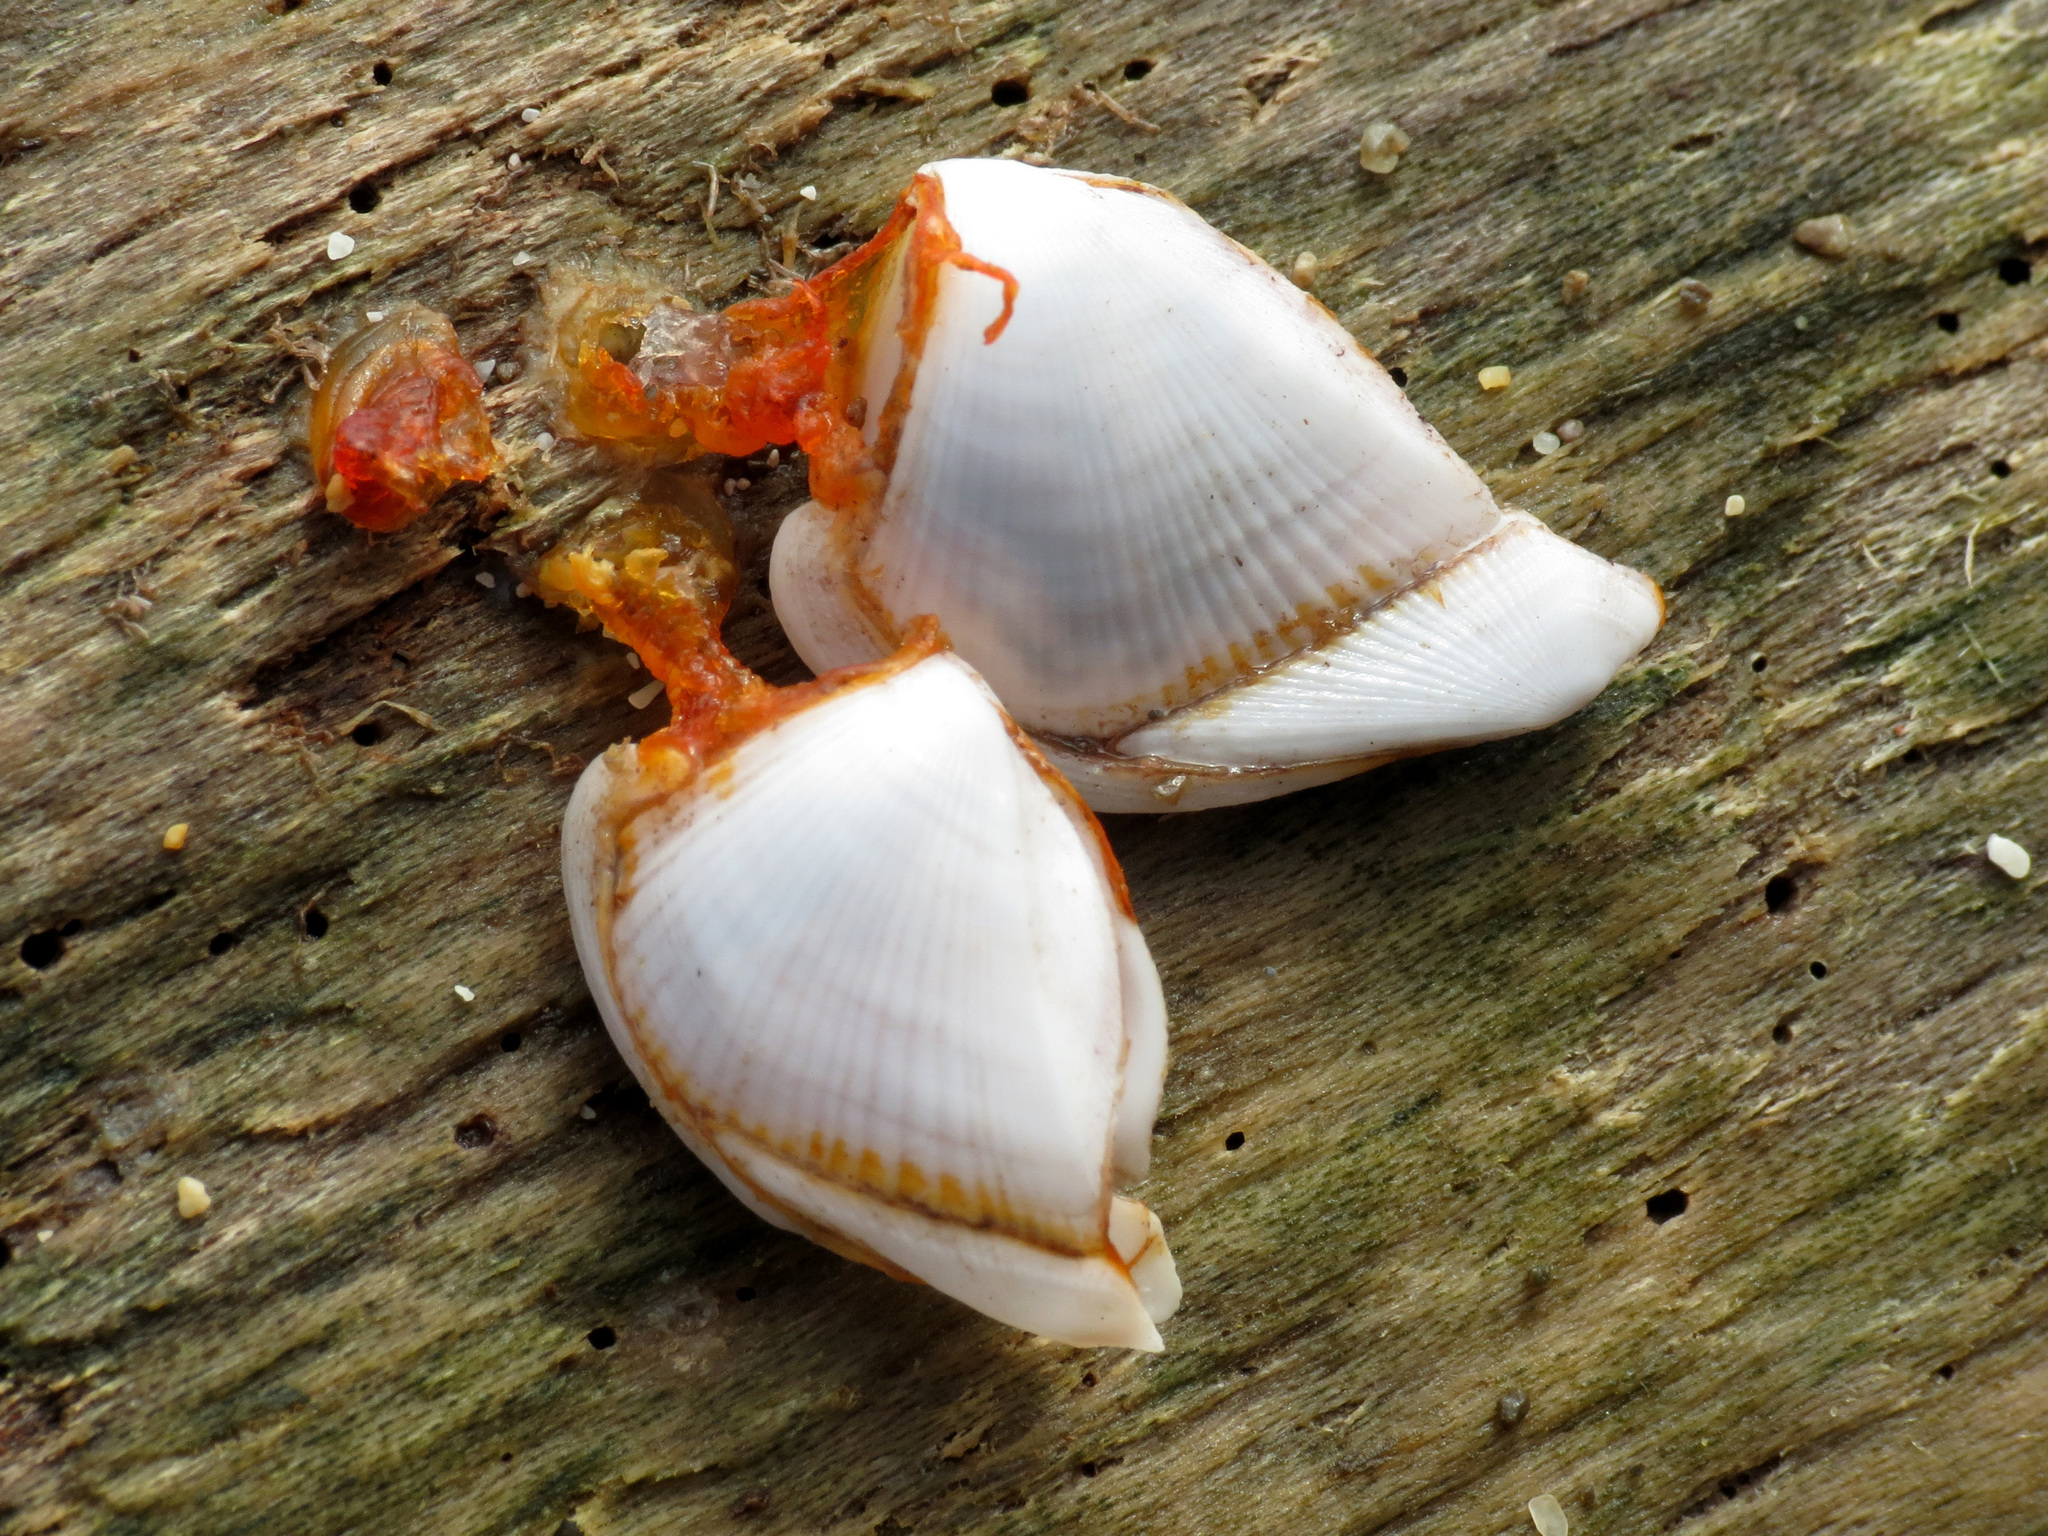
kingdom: Animalia
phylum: Arthropoda
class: Maxillopoda
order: Pedunculata
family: Lepadidae
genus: Lepas
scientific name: Lepas anserifera
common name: Goose barnacle
